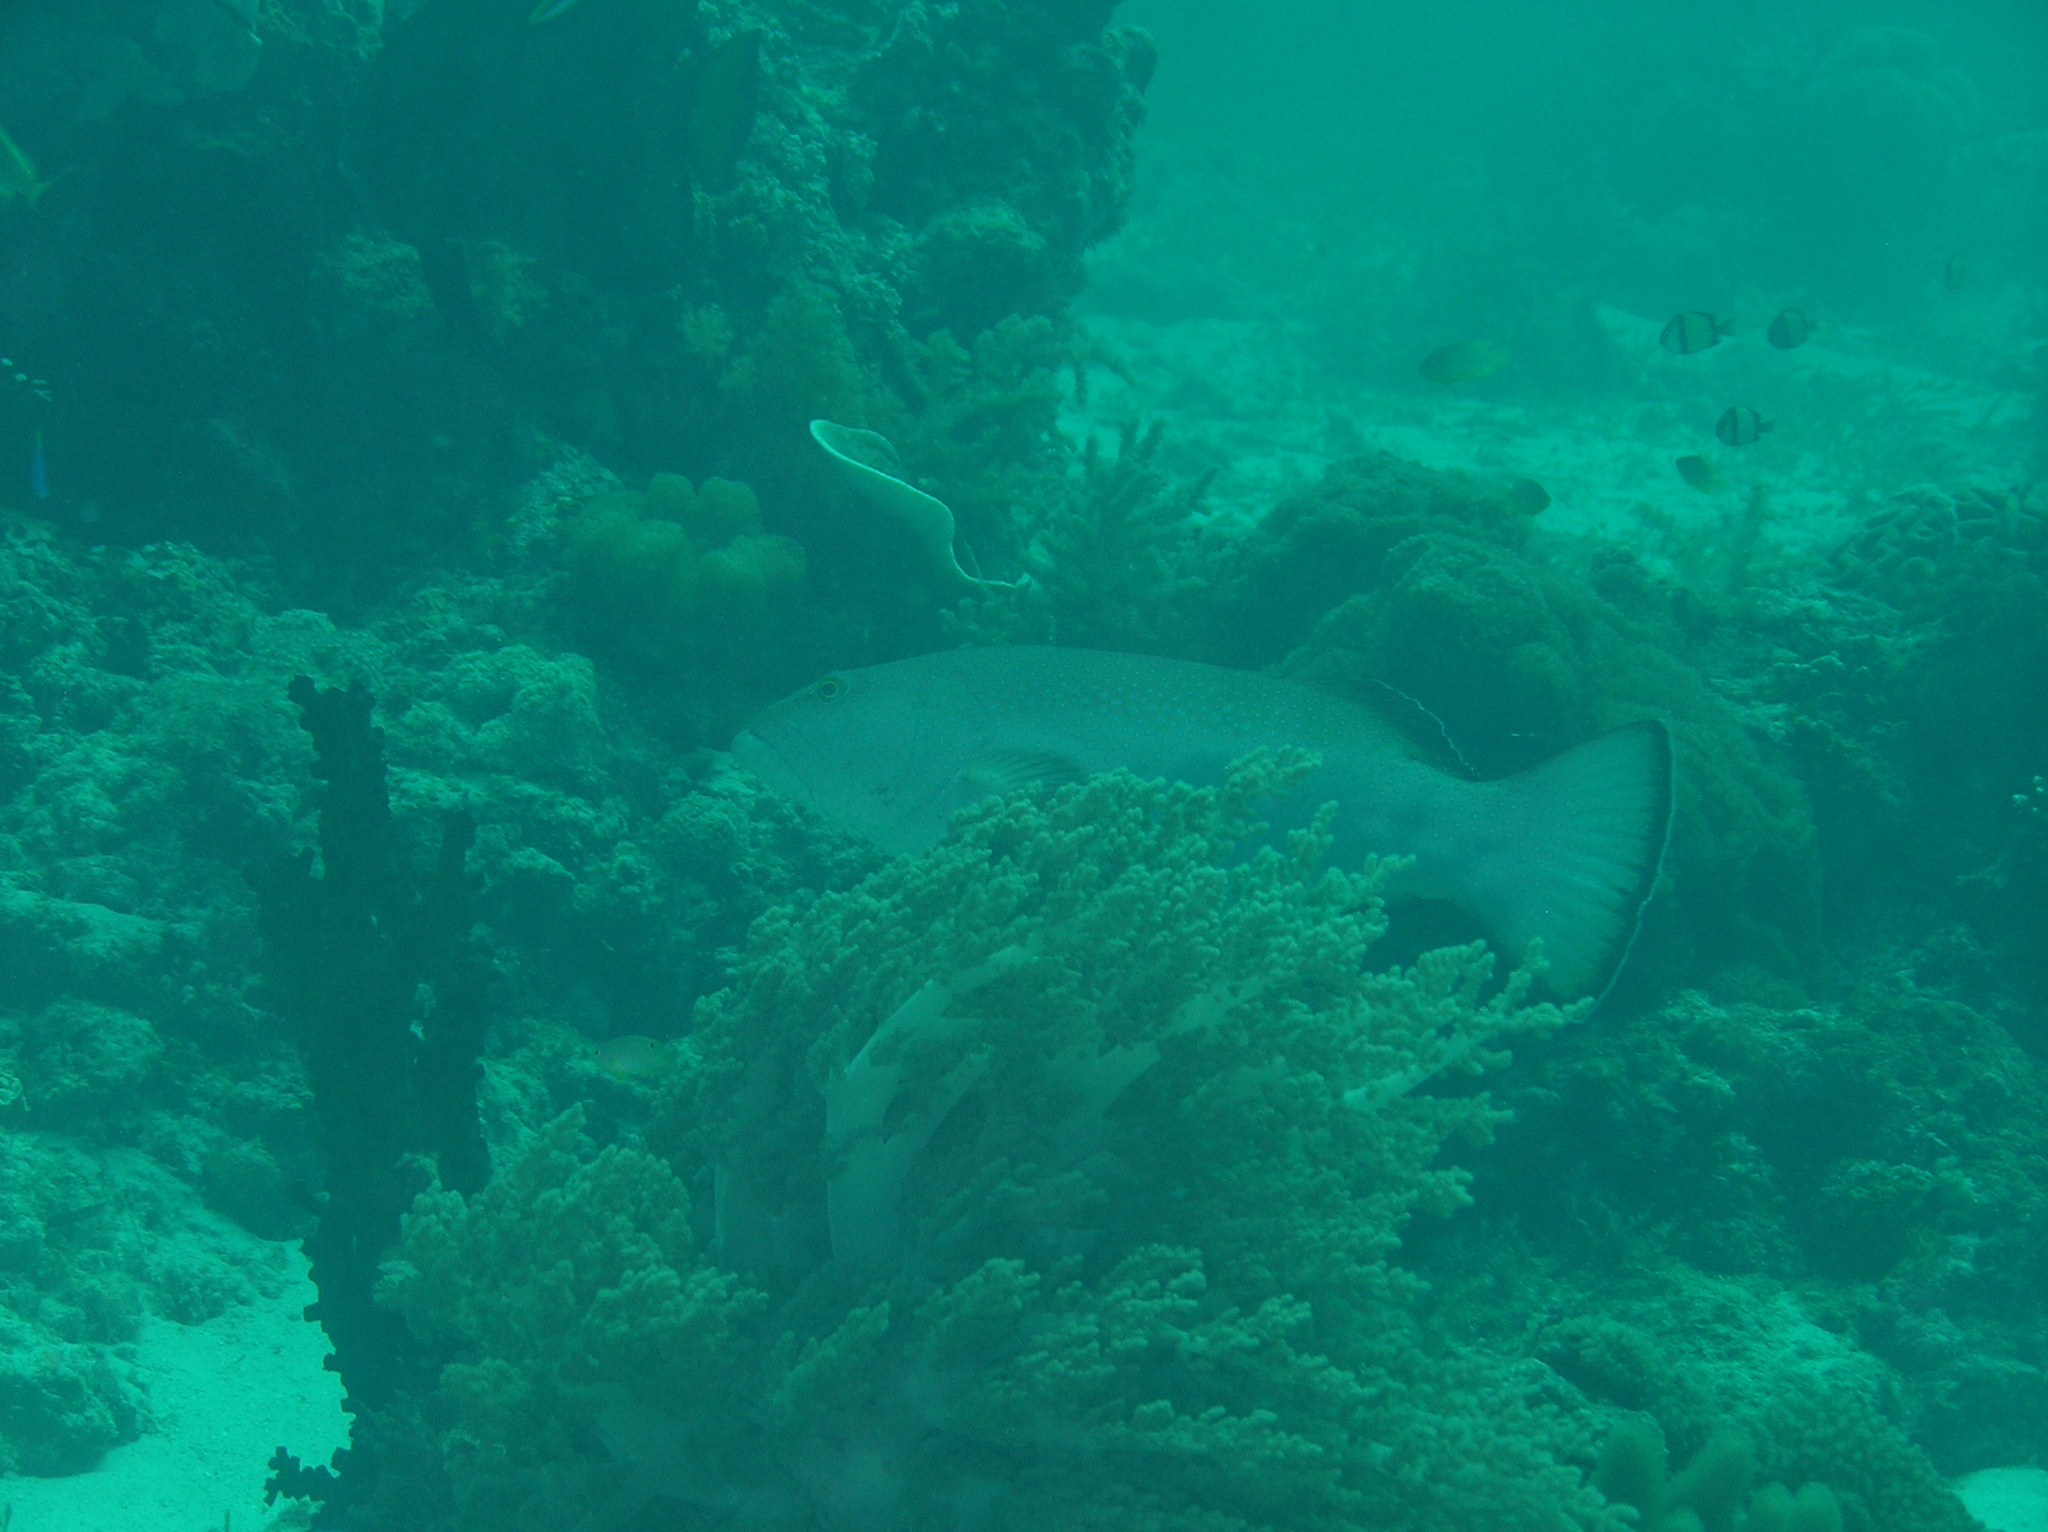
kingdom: Animalia
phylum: Chordata
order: Perciformes
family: Serranidae
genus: Plectropomus
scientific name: Plectropomus areolatus
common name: Squaretail coralgrouper
